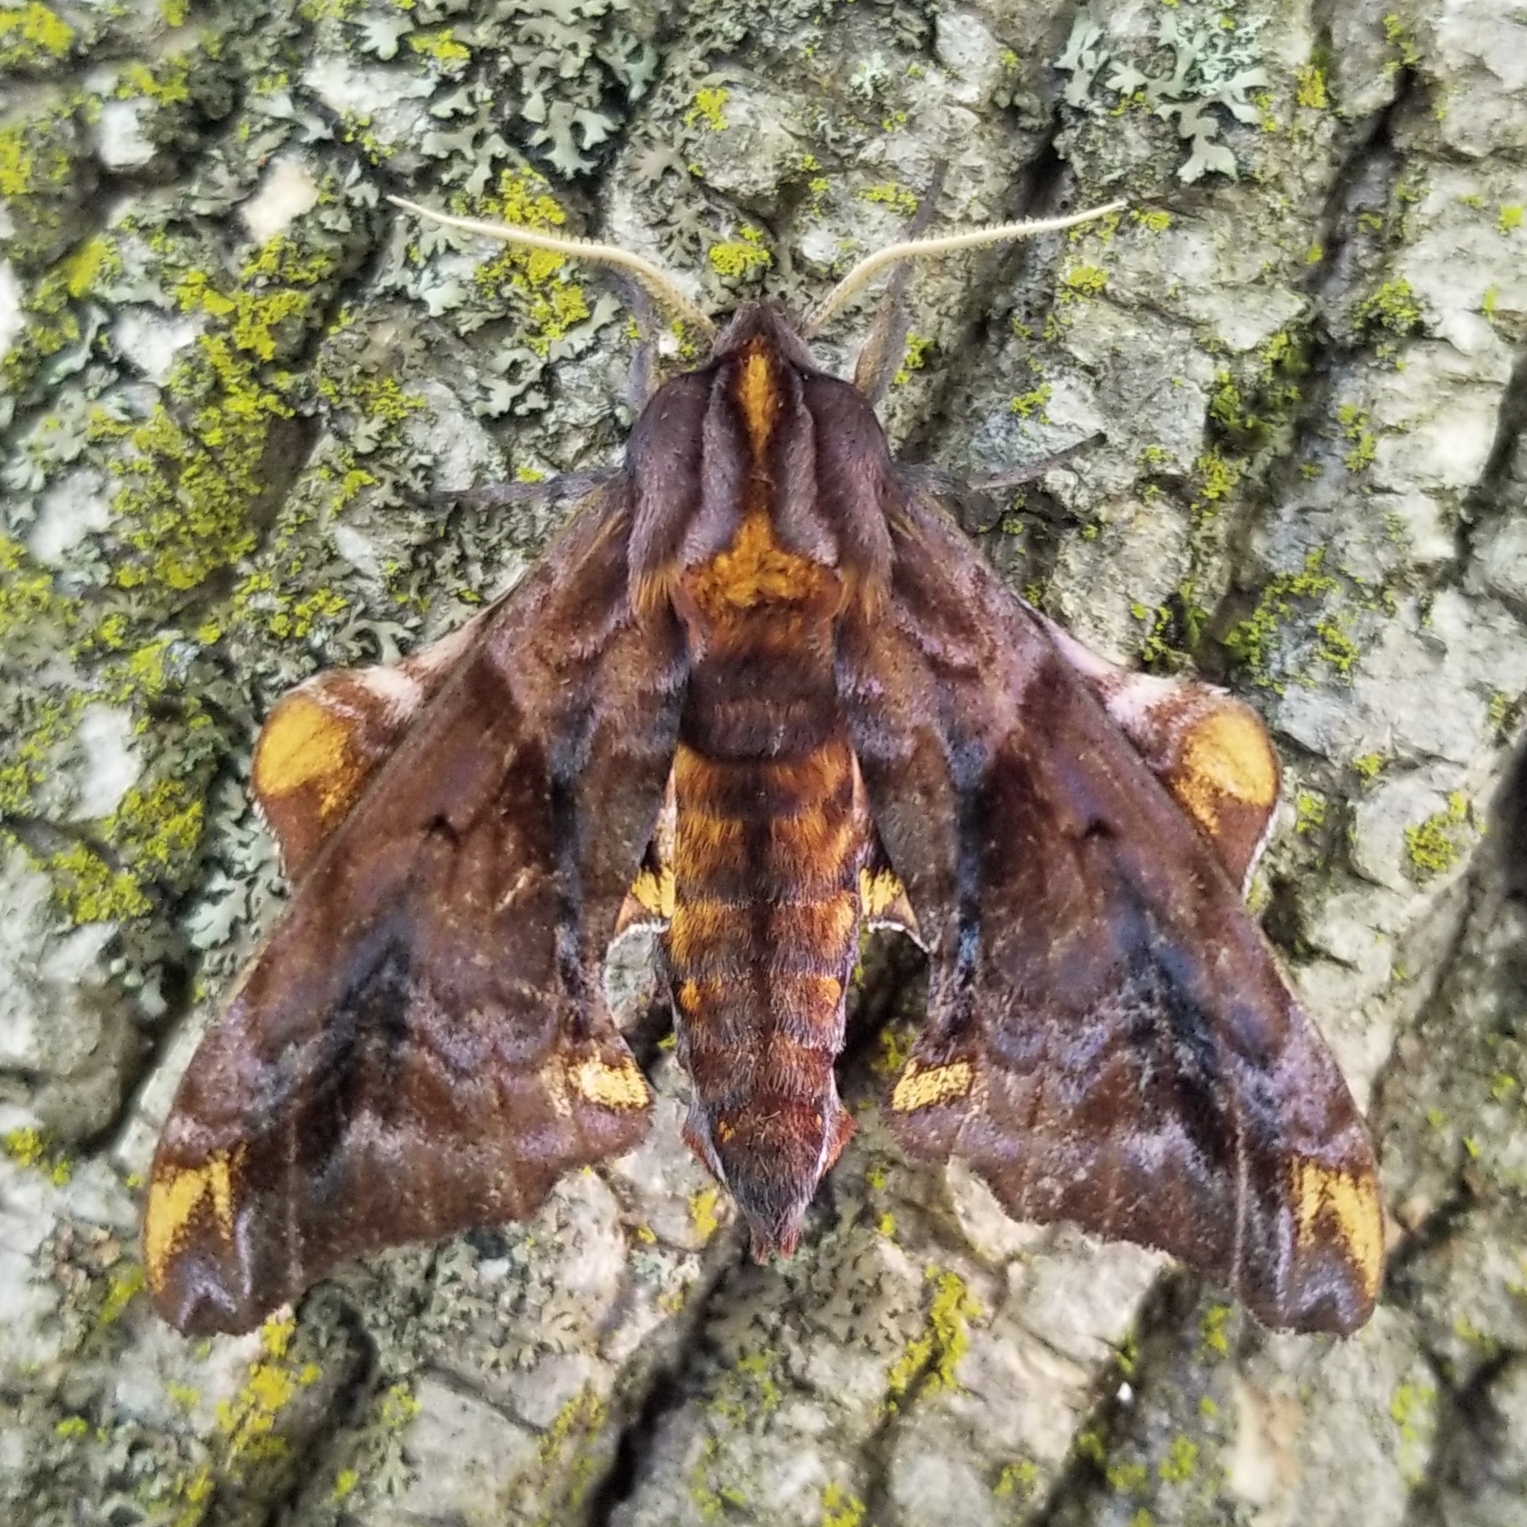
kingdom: Animalia
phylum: Arthropoda
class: Insecta
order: Lepidoptera
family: Sphingidae
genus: Paonias
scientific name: Paonias myops
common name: Small-eyed sphinx
